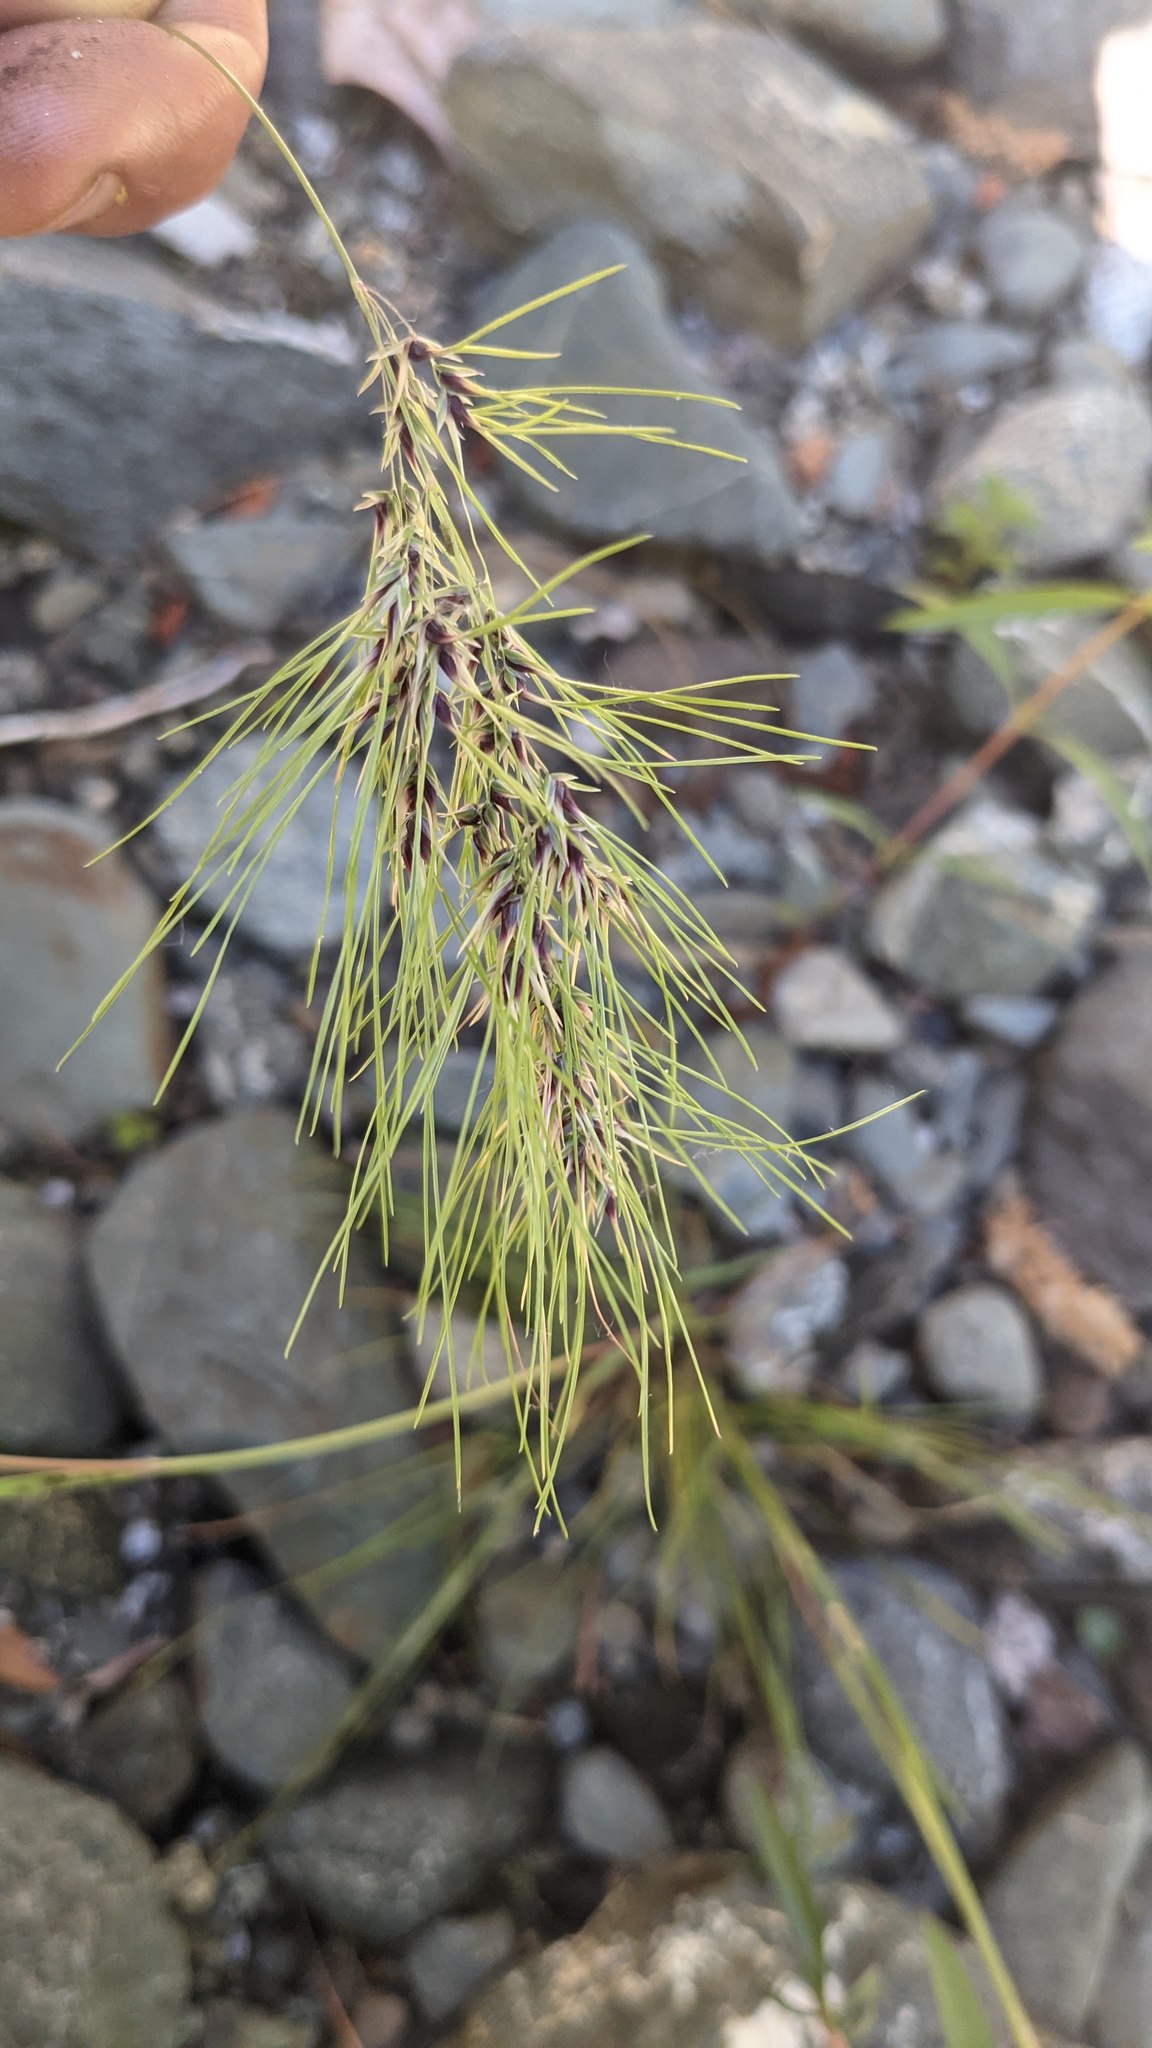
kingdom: Plantae
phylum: Tracheophyta
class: Liliopsida
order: Poales
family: Poaceae
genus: Poa
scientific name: Poa bulbosa
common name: Bulbous bluegrass
